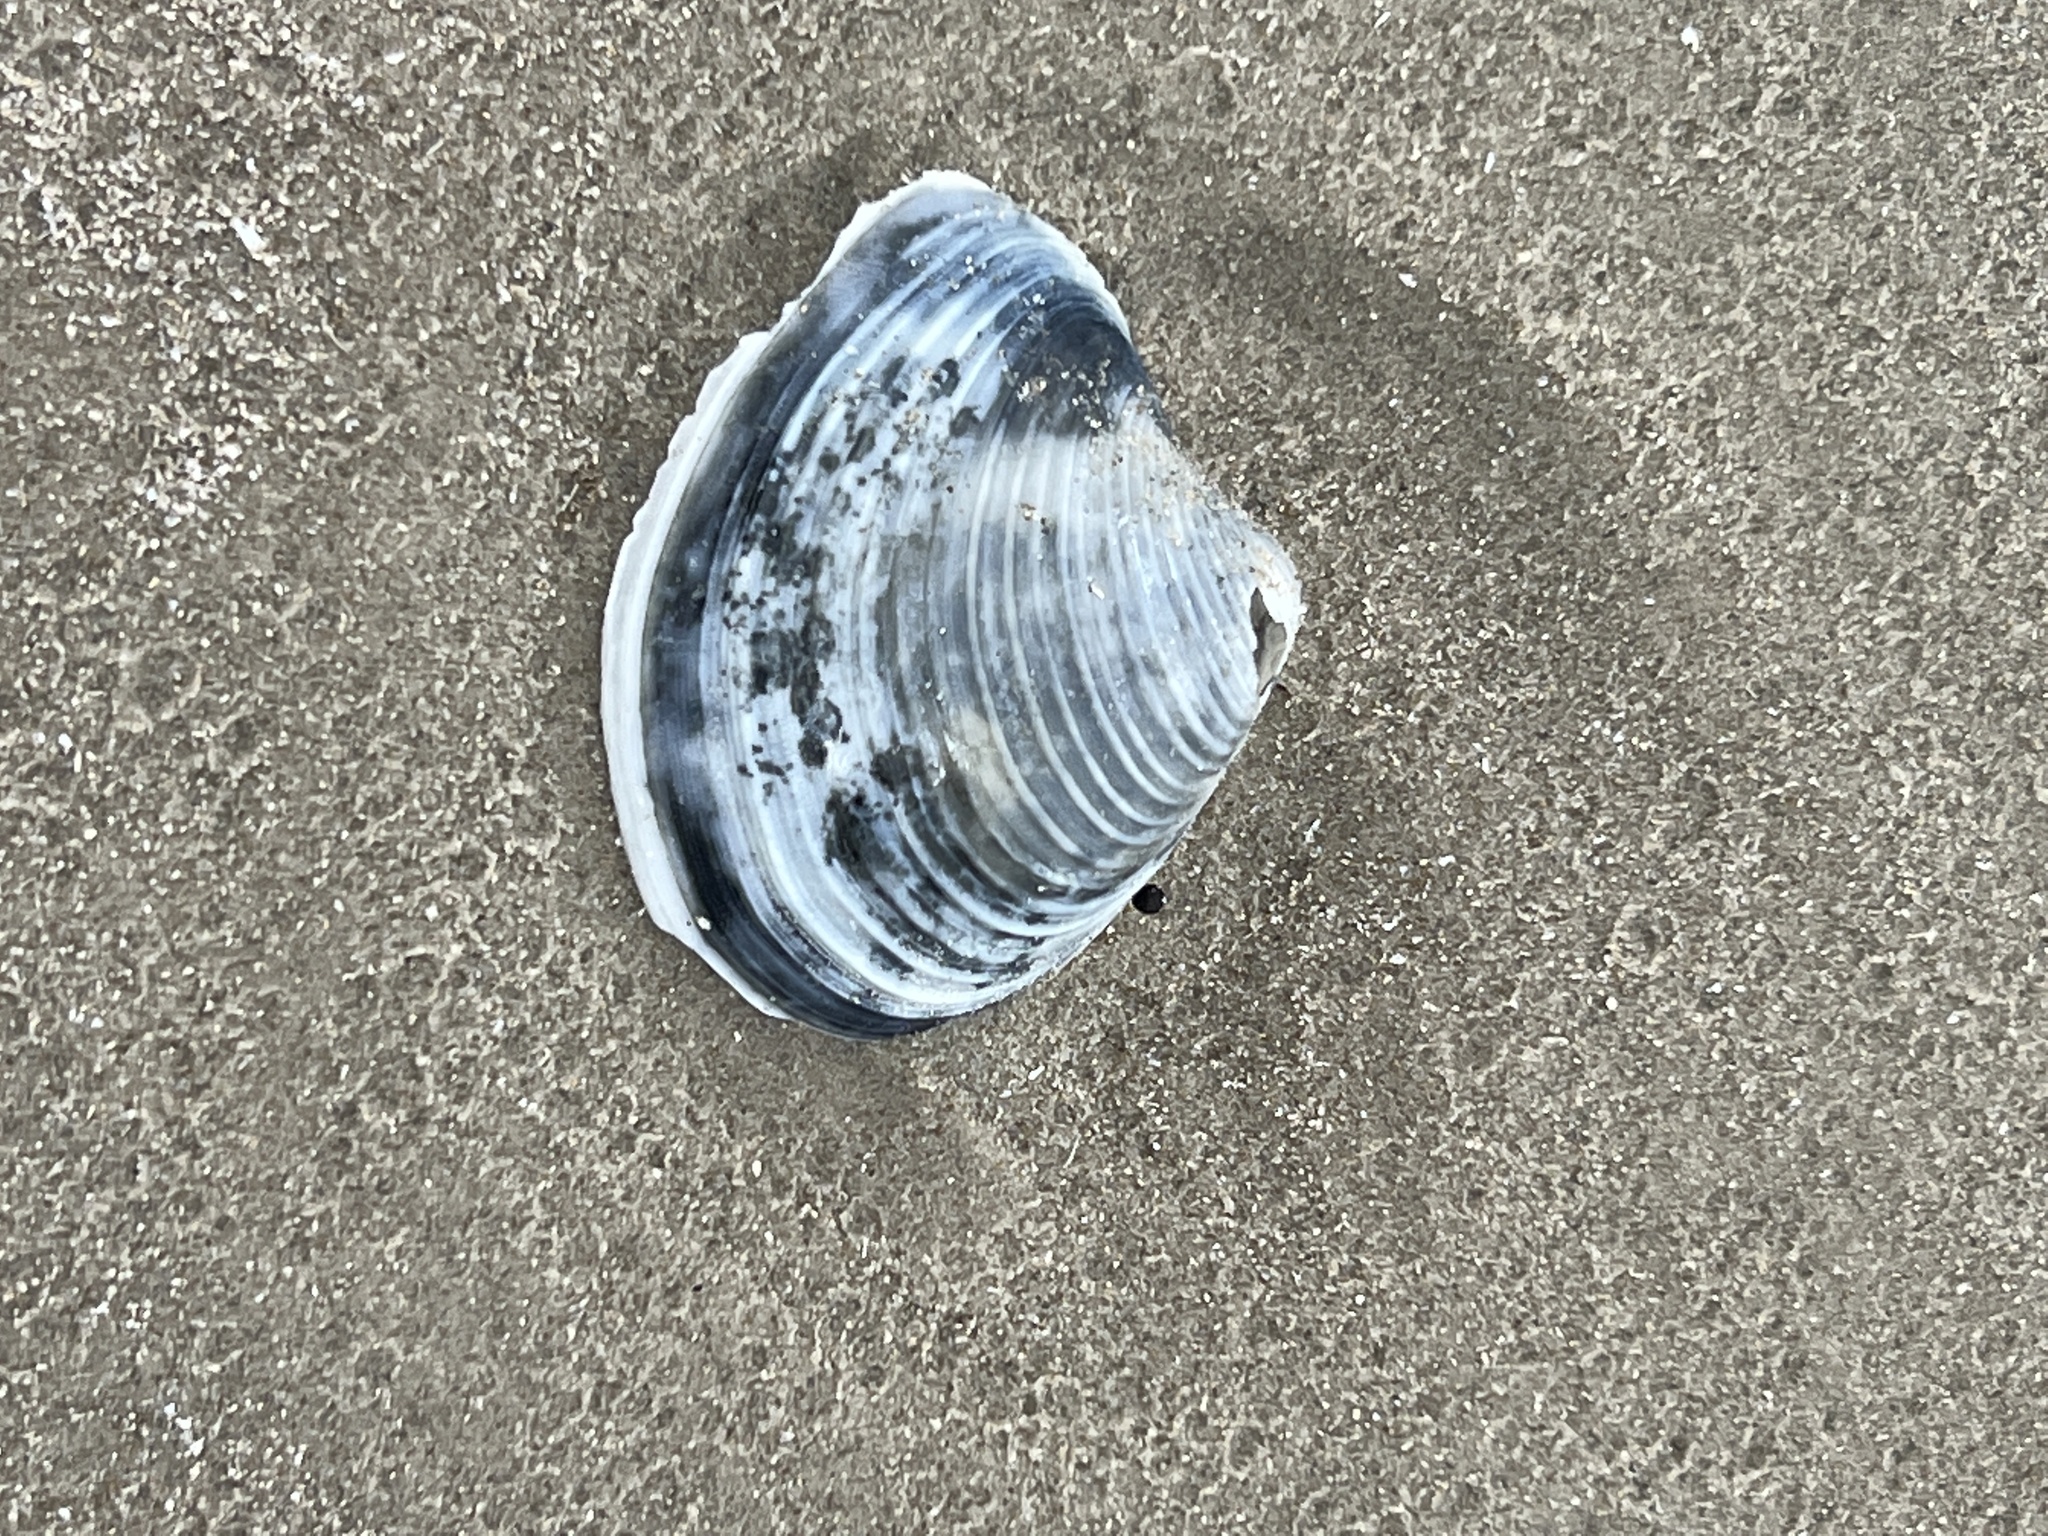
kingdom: Animalia
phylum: Mollusca
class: Bivalvia
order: Venerida
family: Anatinellidae
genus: Raeta
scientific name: Raeta plicatella
